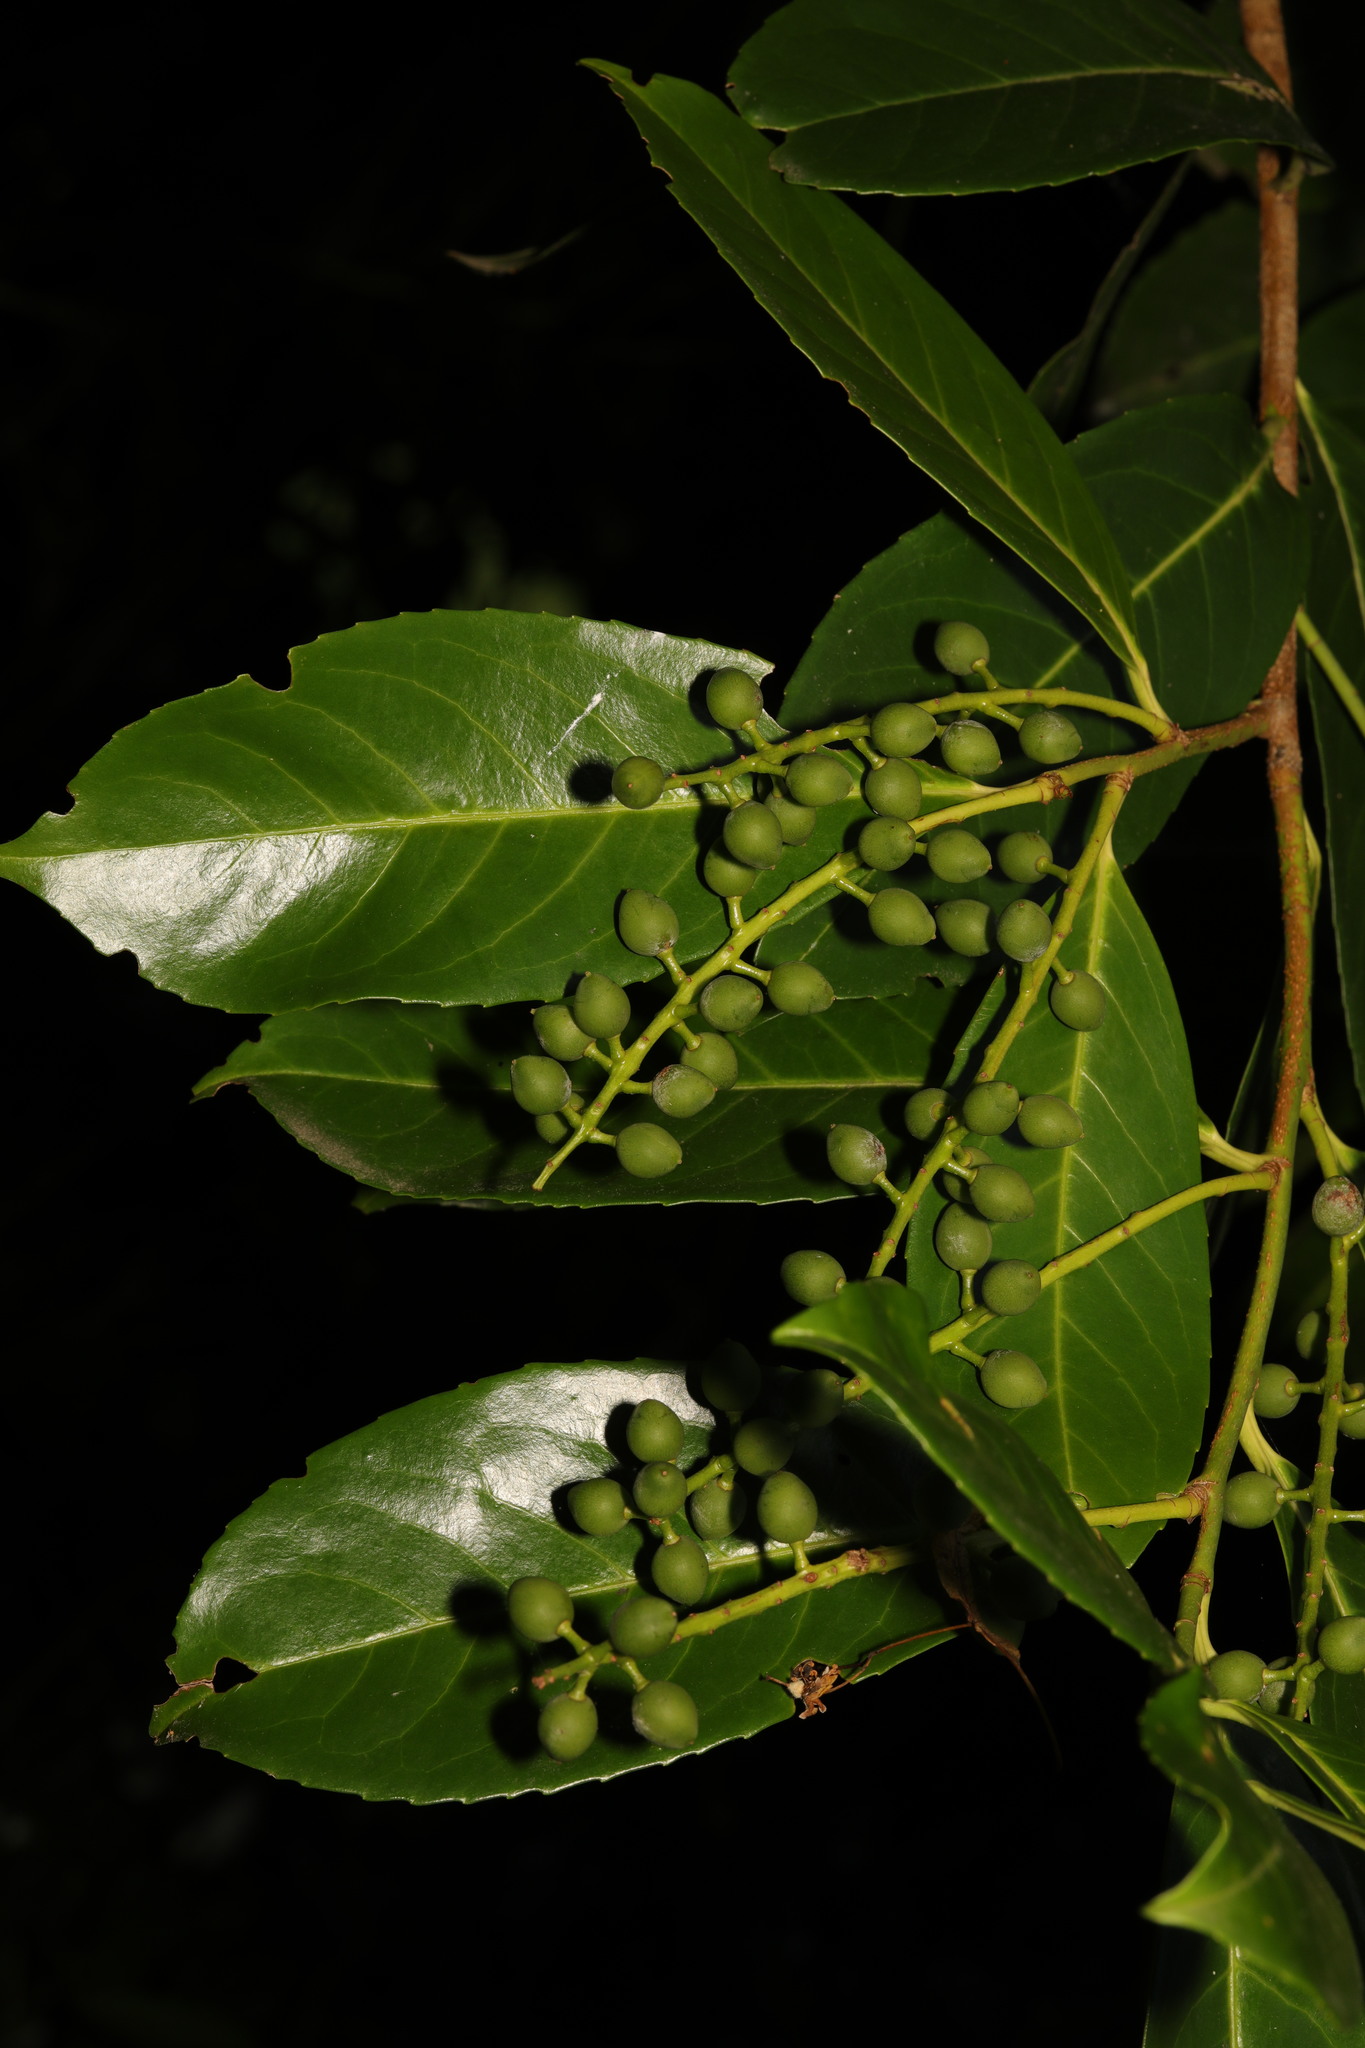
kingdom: Plantae
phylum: Tracheophyta
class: Magnoliopsida
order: Rosales
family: Rosaceae
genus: Prunus
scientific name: Prunus laurocerasus
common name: Cherry laurel
